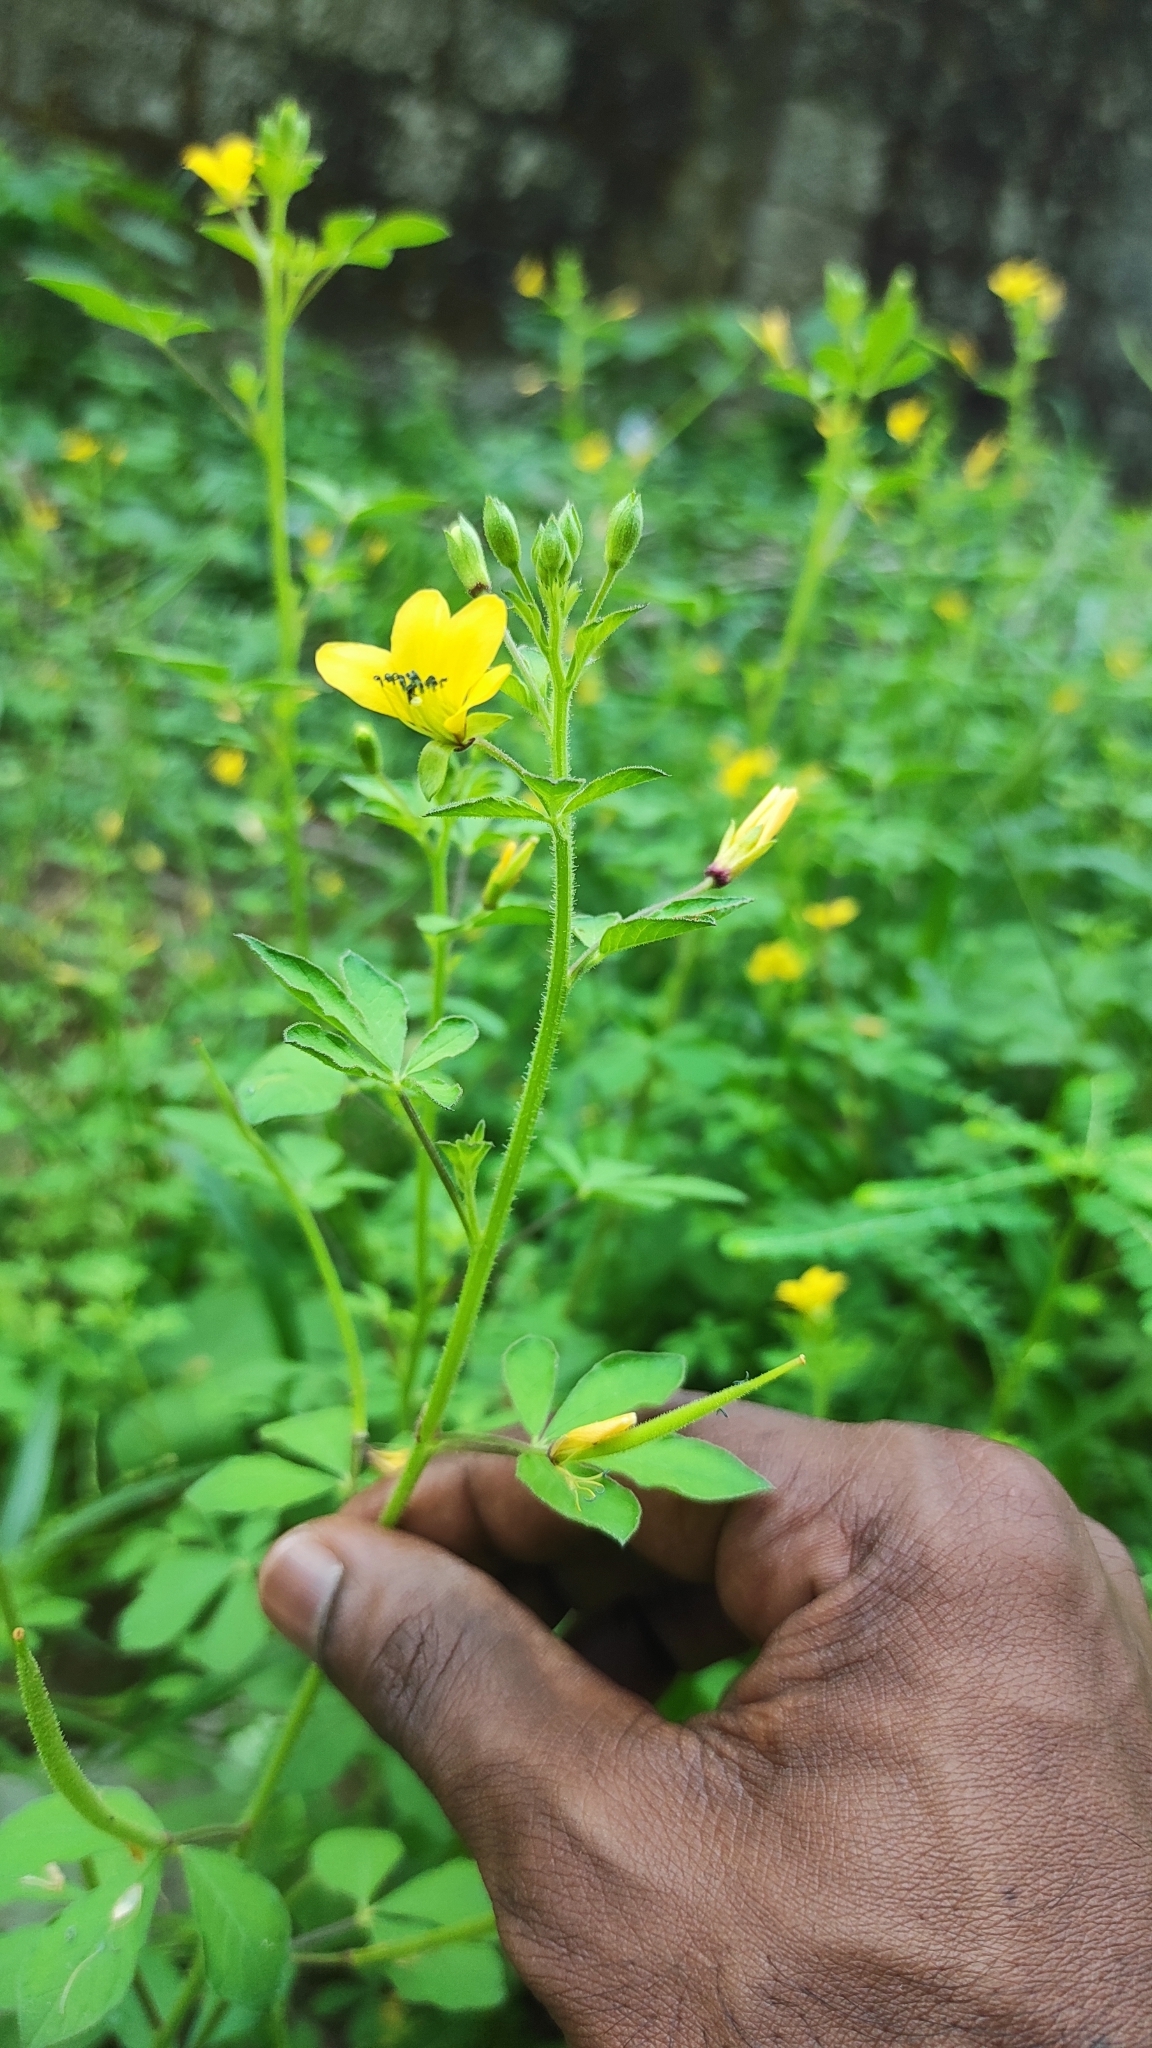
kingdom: Plantae
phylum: Tracheophyta
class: Magnoliopsida
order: Brassicales
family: Cleomaceae
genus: Arivela
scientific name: Arivela viscosa
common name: Asian spiderflower
